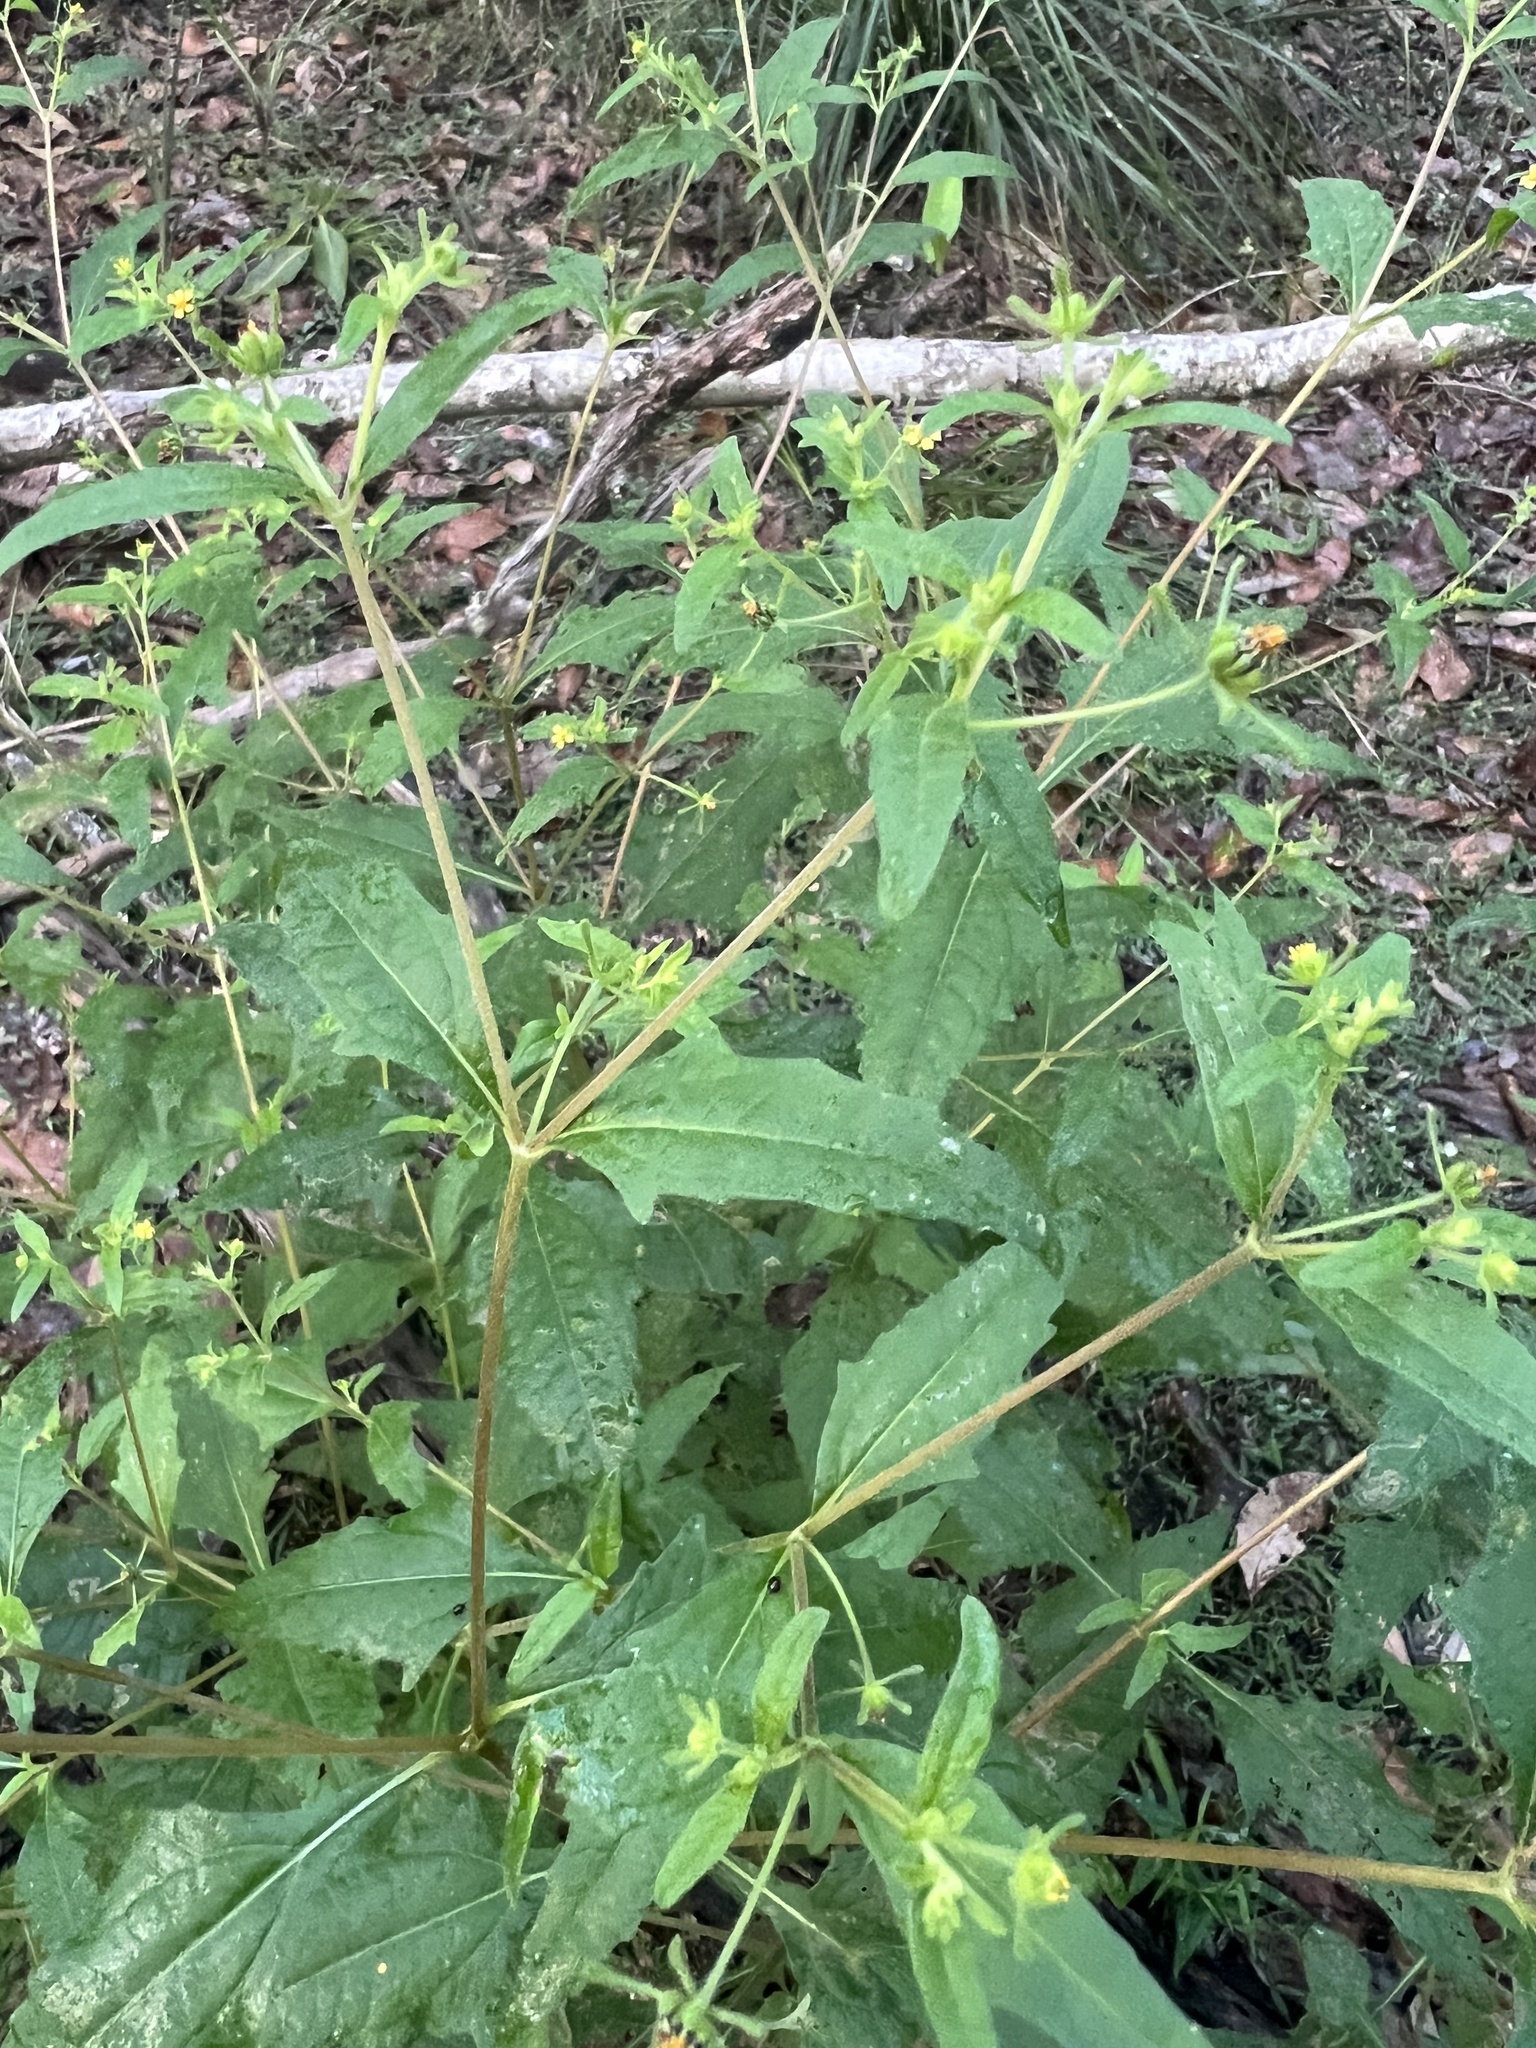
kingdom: Plantae
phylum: Tracheophyta
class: Magnoliopsida
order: Asterales
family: Asteraceae
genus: Sigesbeckia
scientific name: Sigesbeckia orientalis
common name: Eastern st paul's-wort
